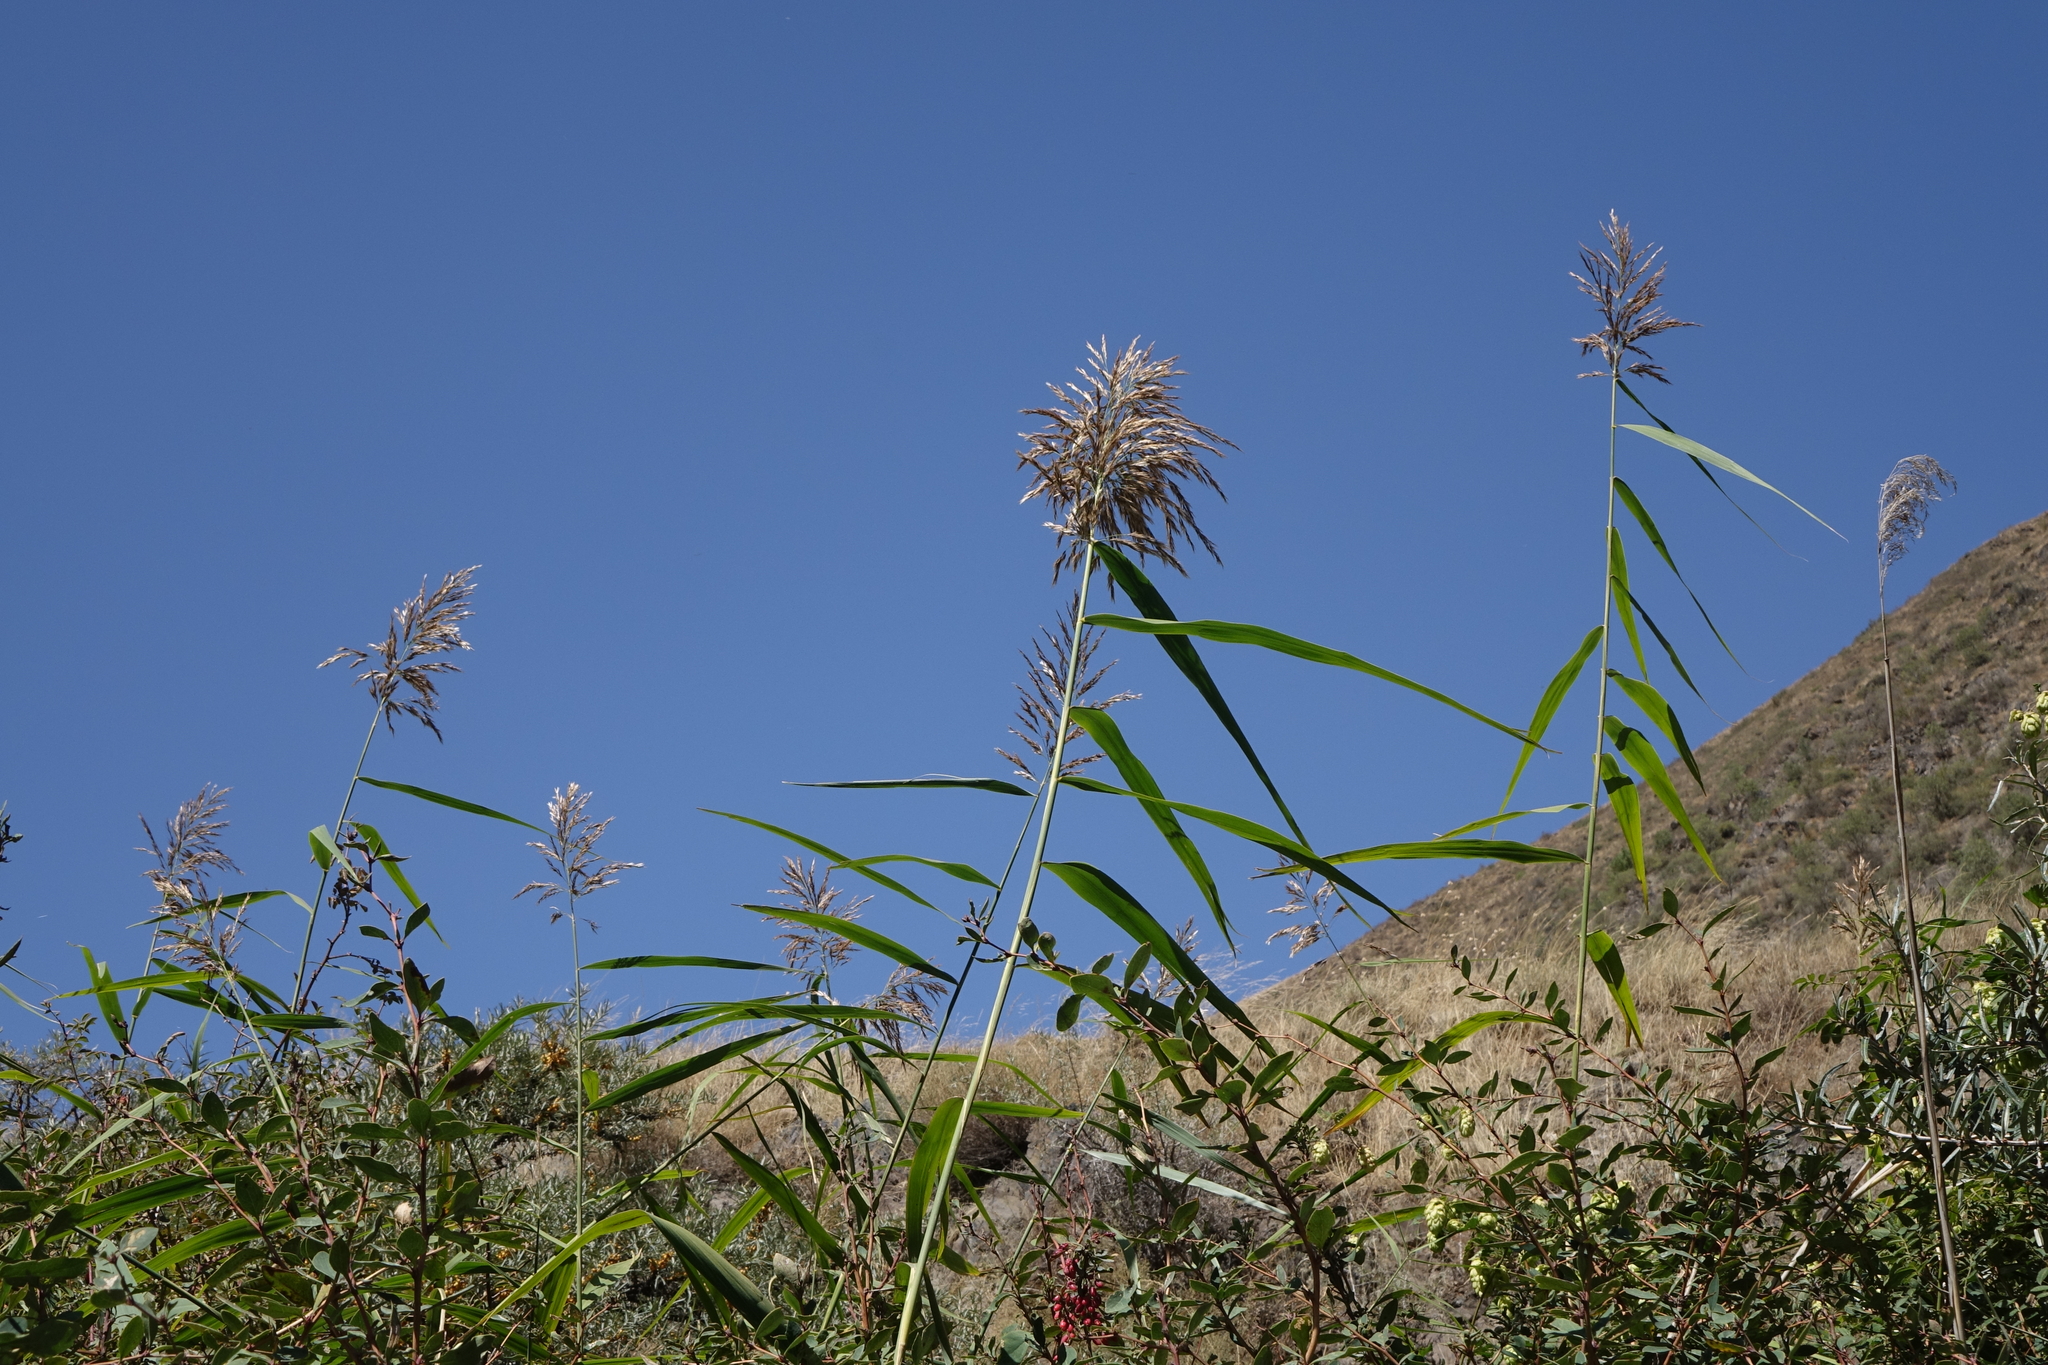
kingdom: Plantae
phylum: Tracheophyta
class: Liliopsida
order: Poales
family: Poaceae
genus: Phragmites
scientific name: Phragmites australis
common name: Common reed
